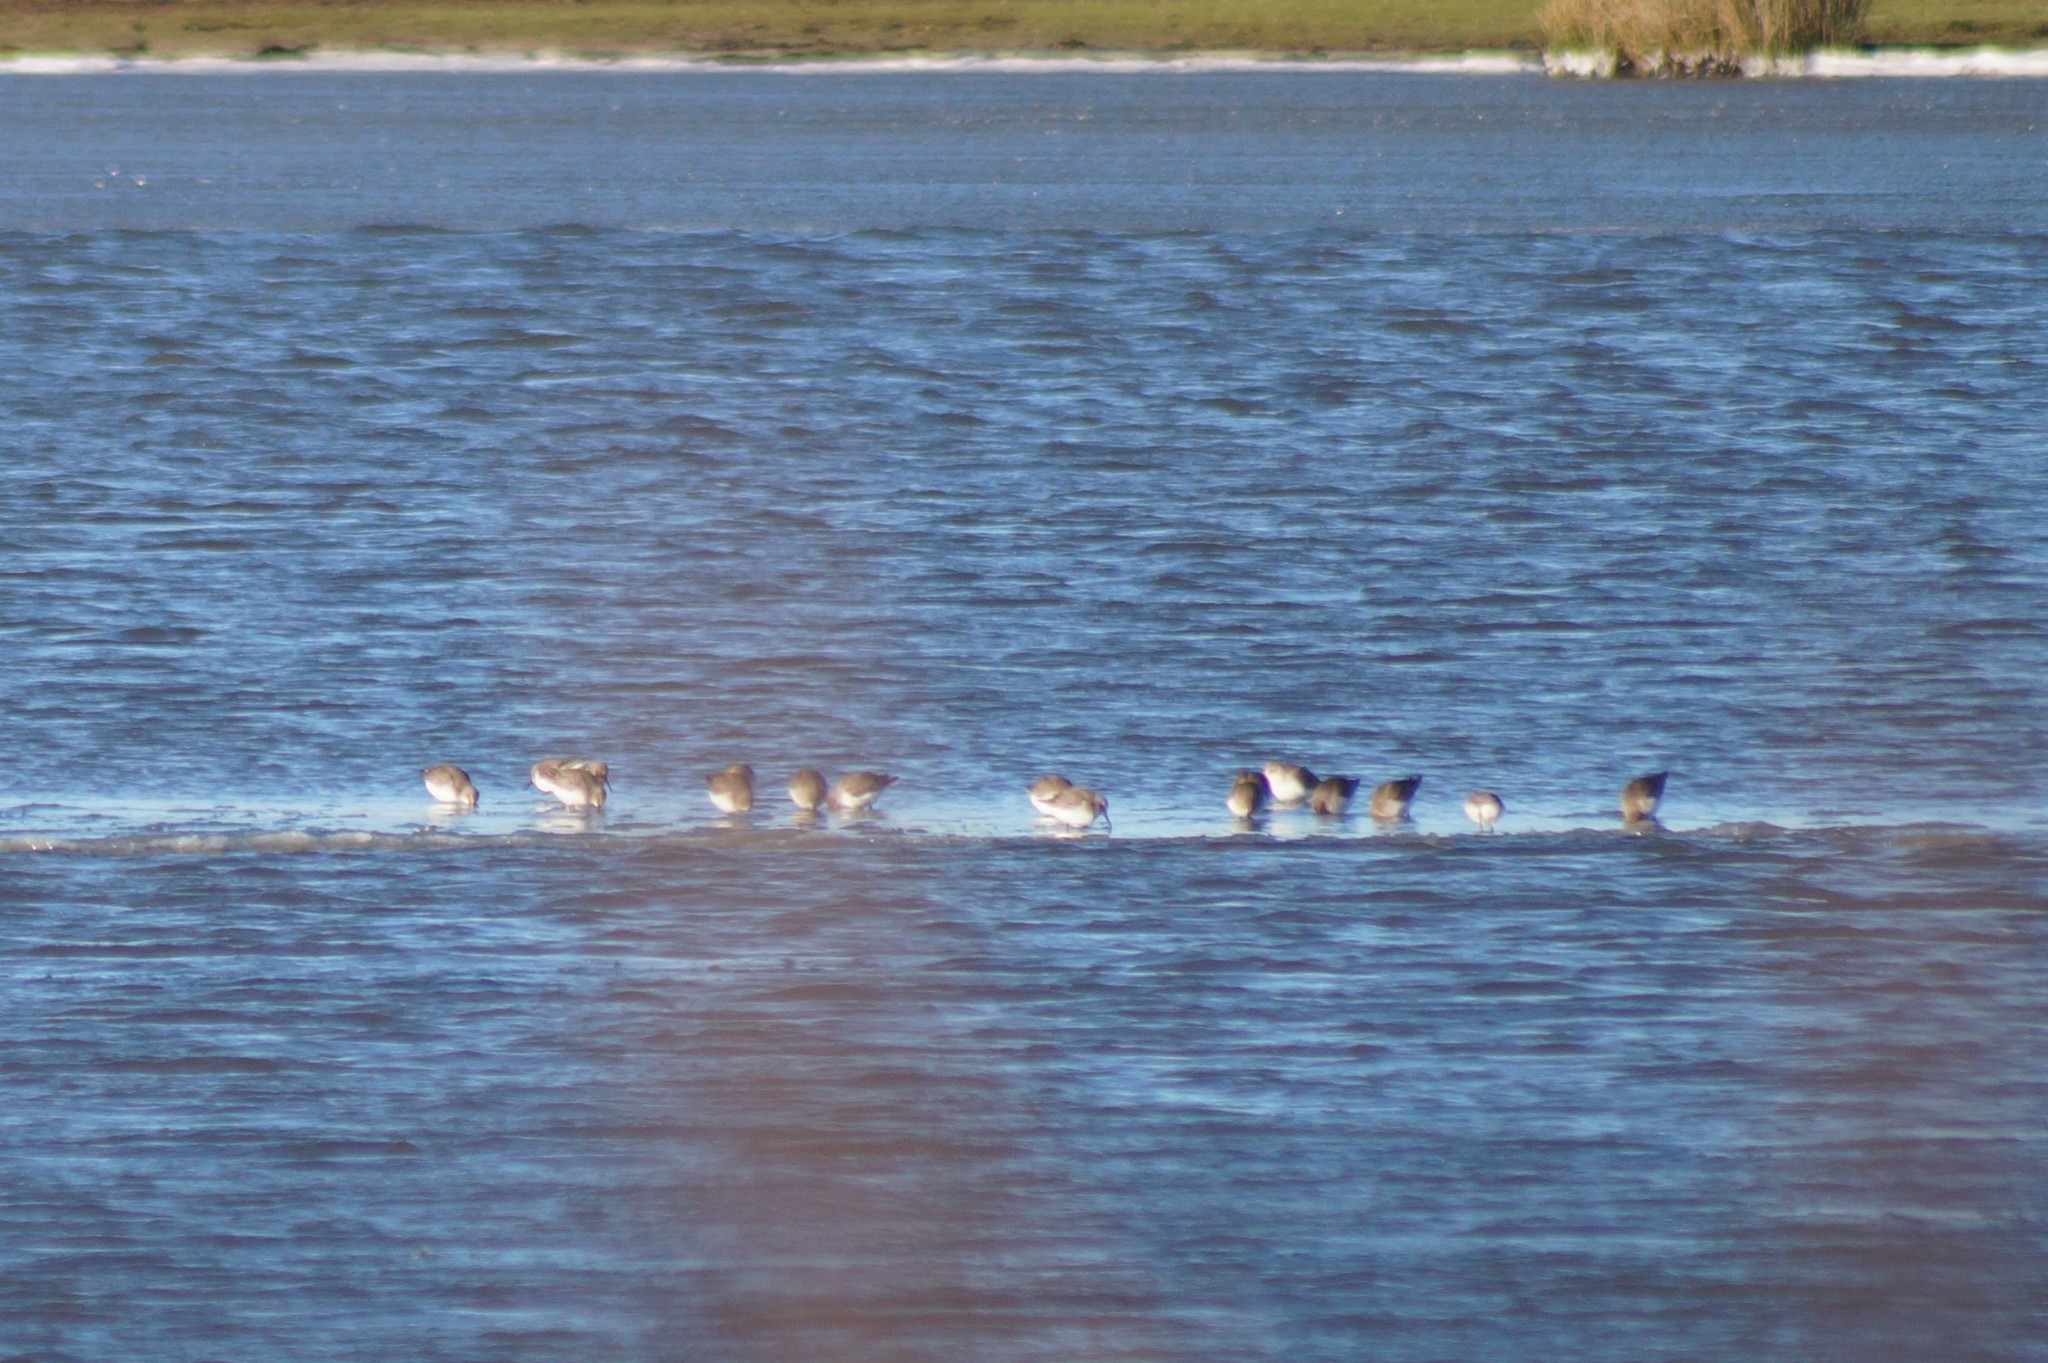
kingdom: Animalia
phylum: Chordata
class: Aves
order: Charadriiformes
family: Scolopacidae
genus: Calidris
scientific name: Calidris alpina
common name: Dunlin
